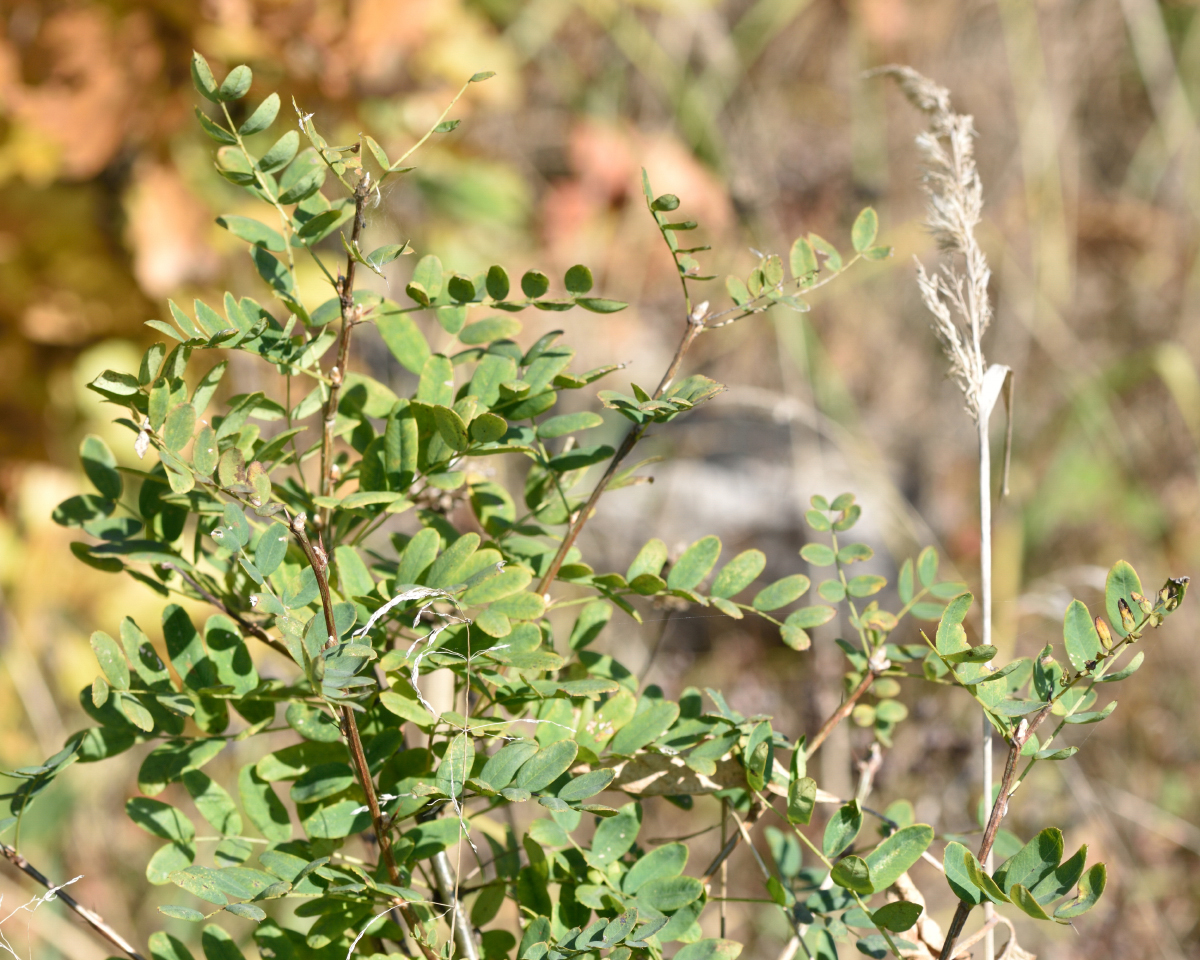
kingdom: Plantae
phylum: Tracheophyta
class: Magnoliopsida
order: Fabales
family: Fabaceae
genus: Caragana
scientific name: Caragana arborescens
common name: Siberian peashrub
